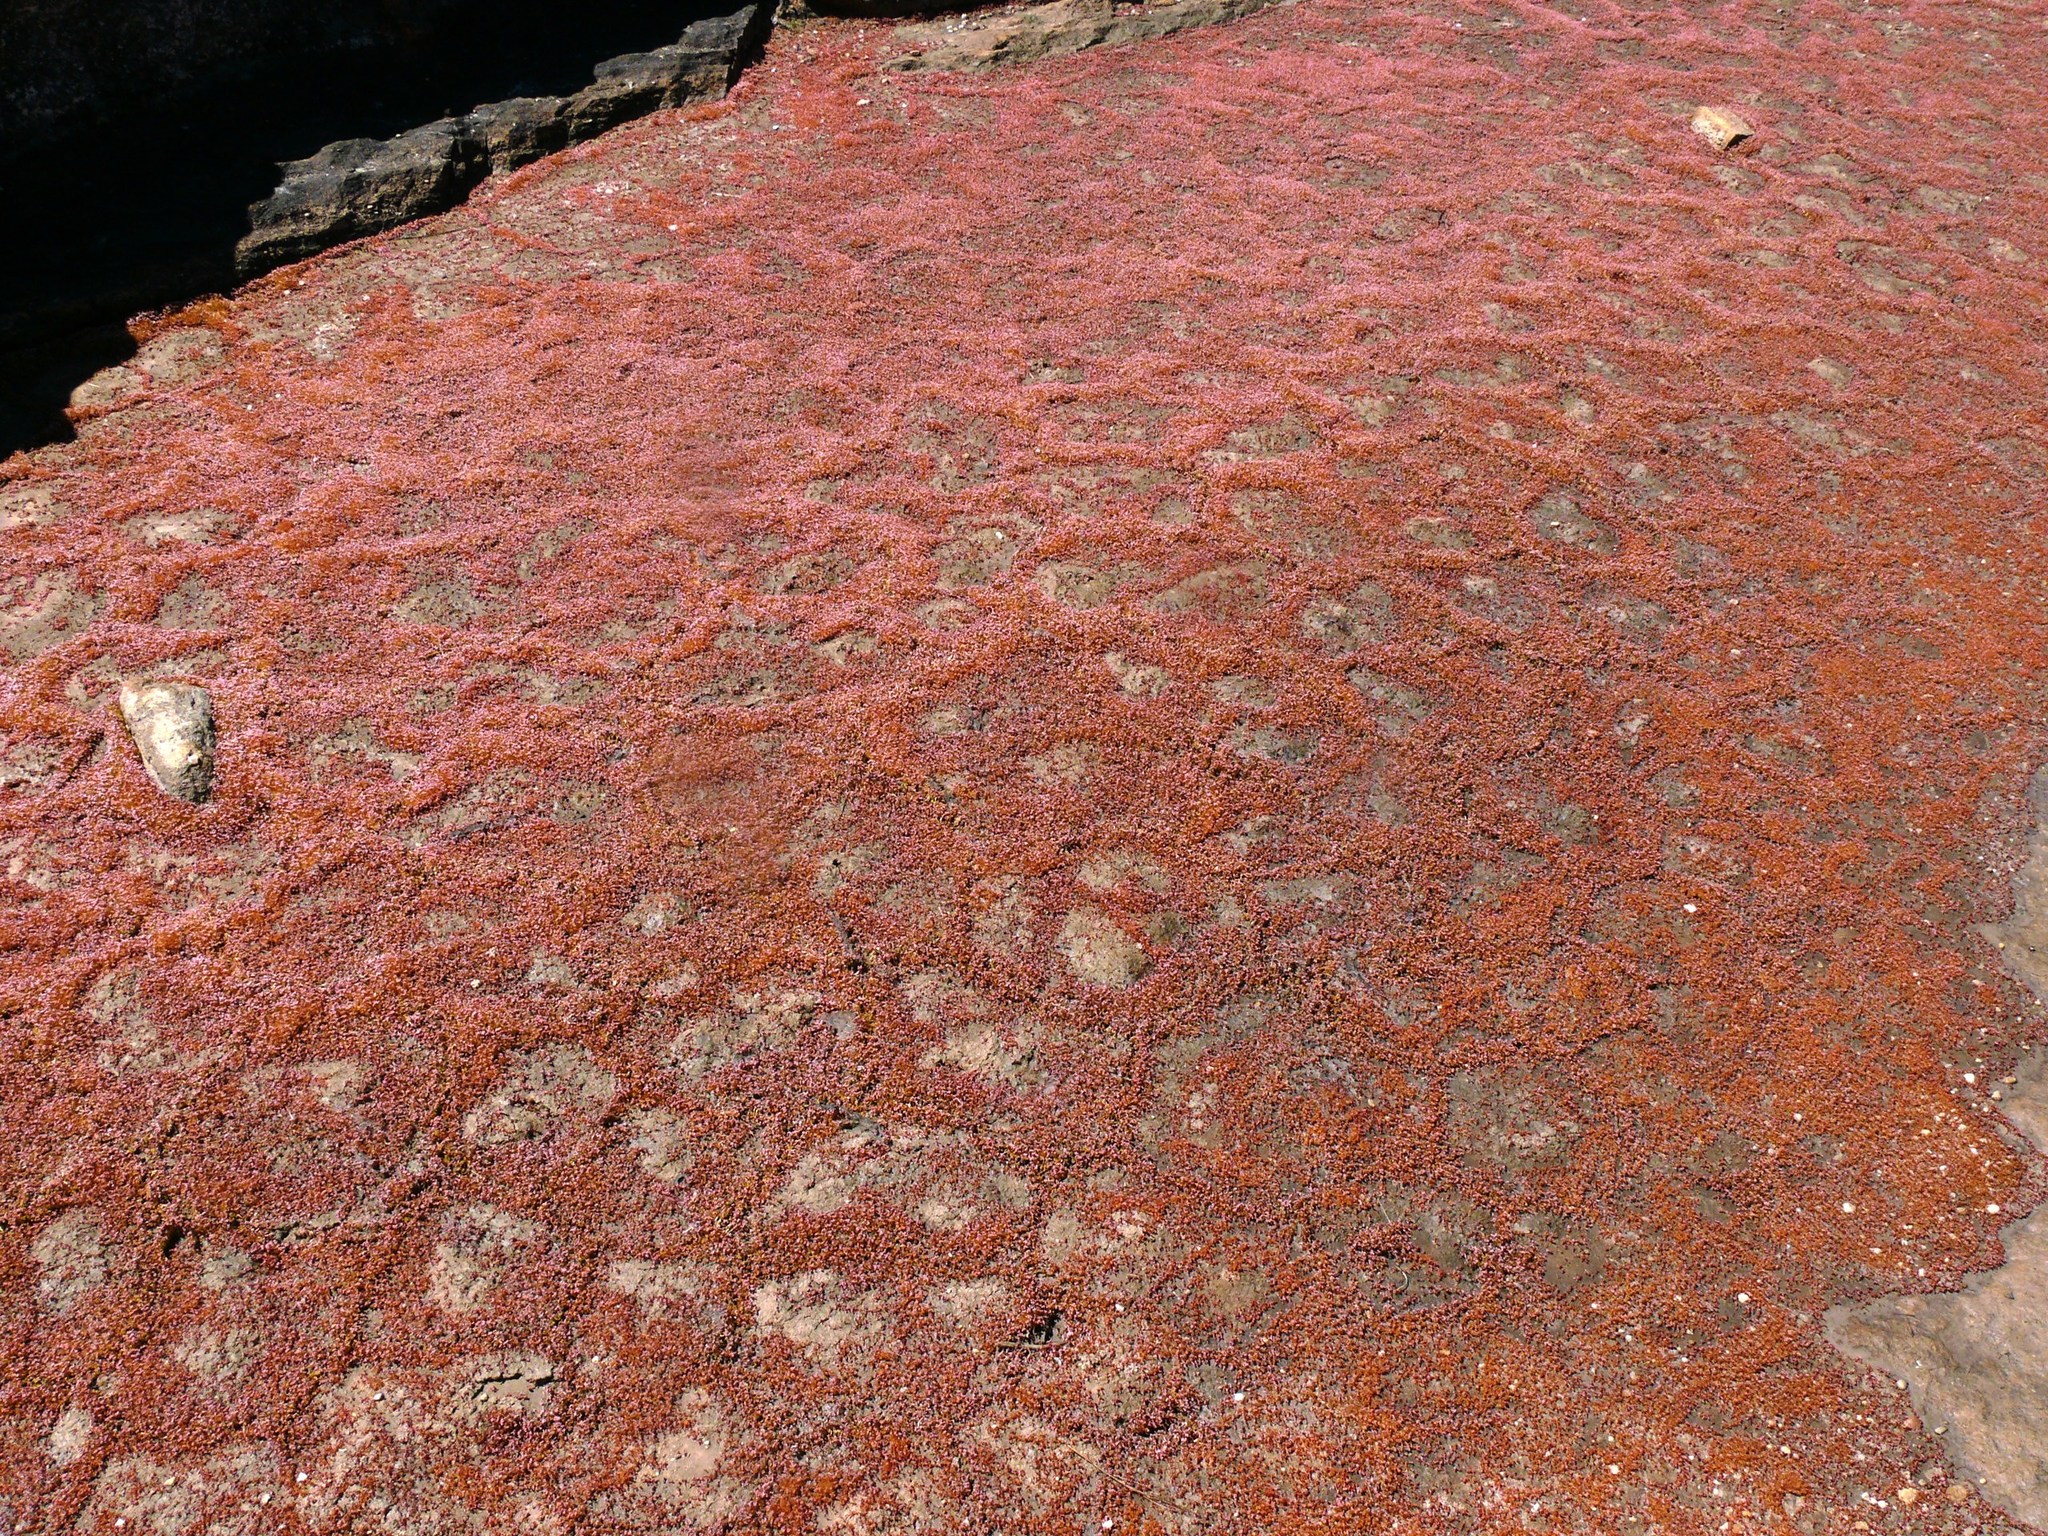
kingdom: Plantae
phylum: Tracheophyta
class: Magnoliopsida
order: Saxifragales
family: Crassulaceae
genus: Crassula
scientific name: Crassula aphylla
